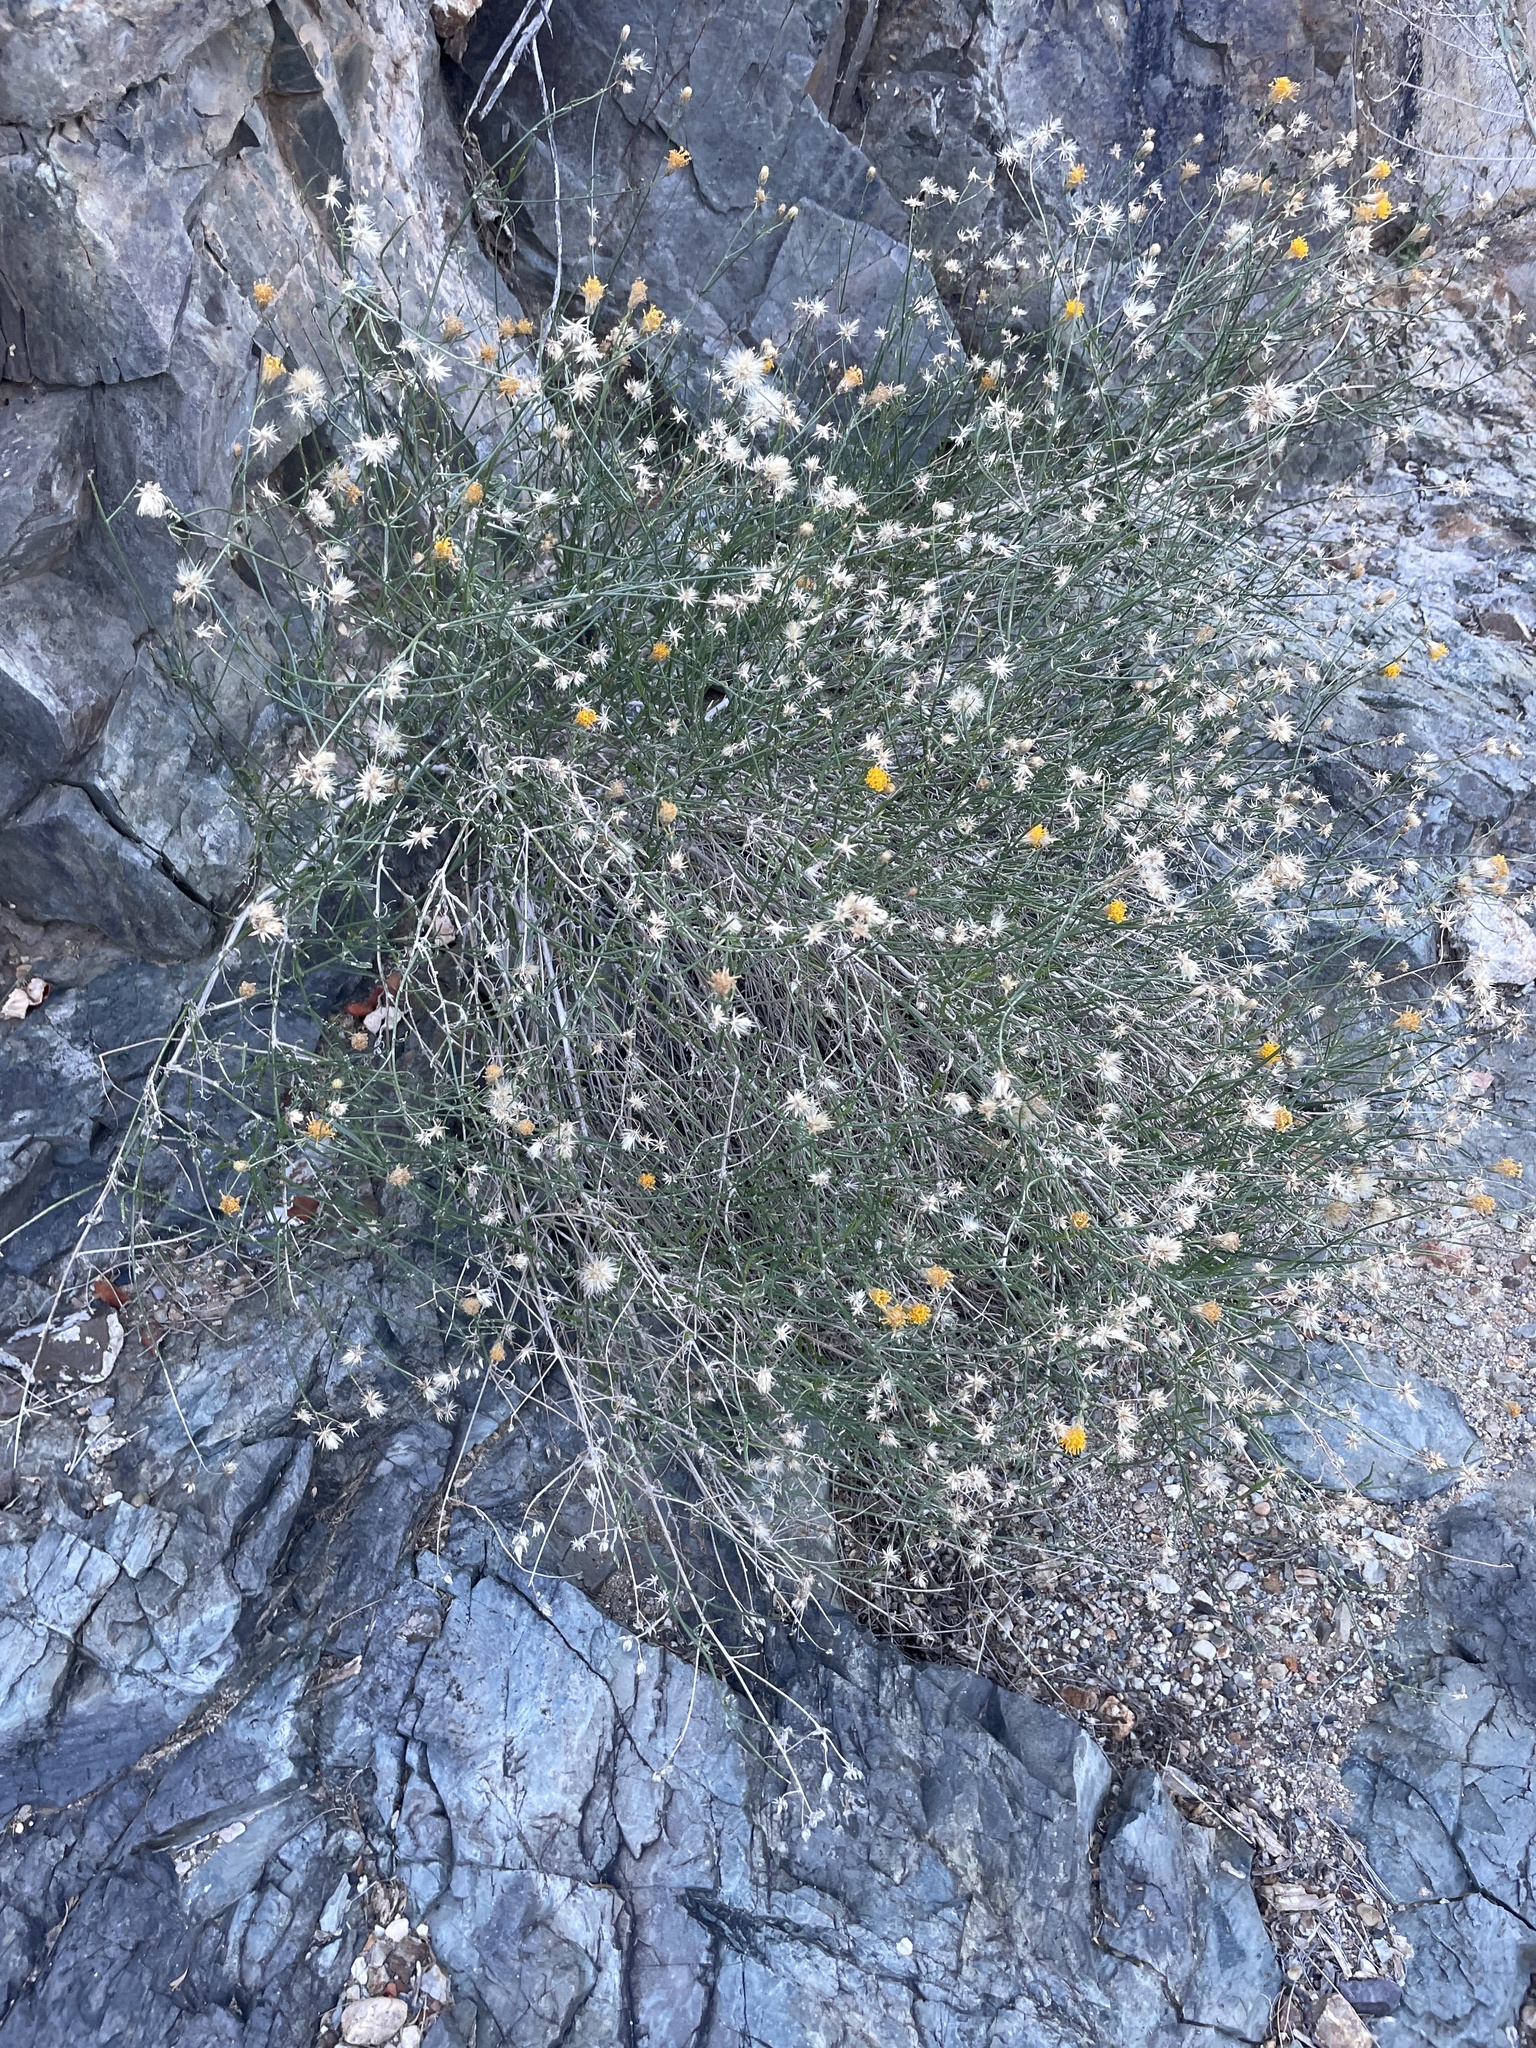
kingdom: Plantae
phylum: Tracheophyta
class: Magnoliopsida
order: Asterales
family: Asteraceae
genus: Bebbia
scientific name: Bebbia juncea
